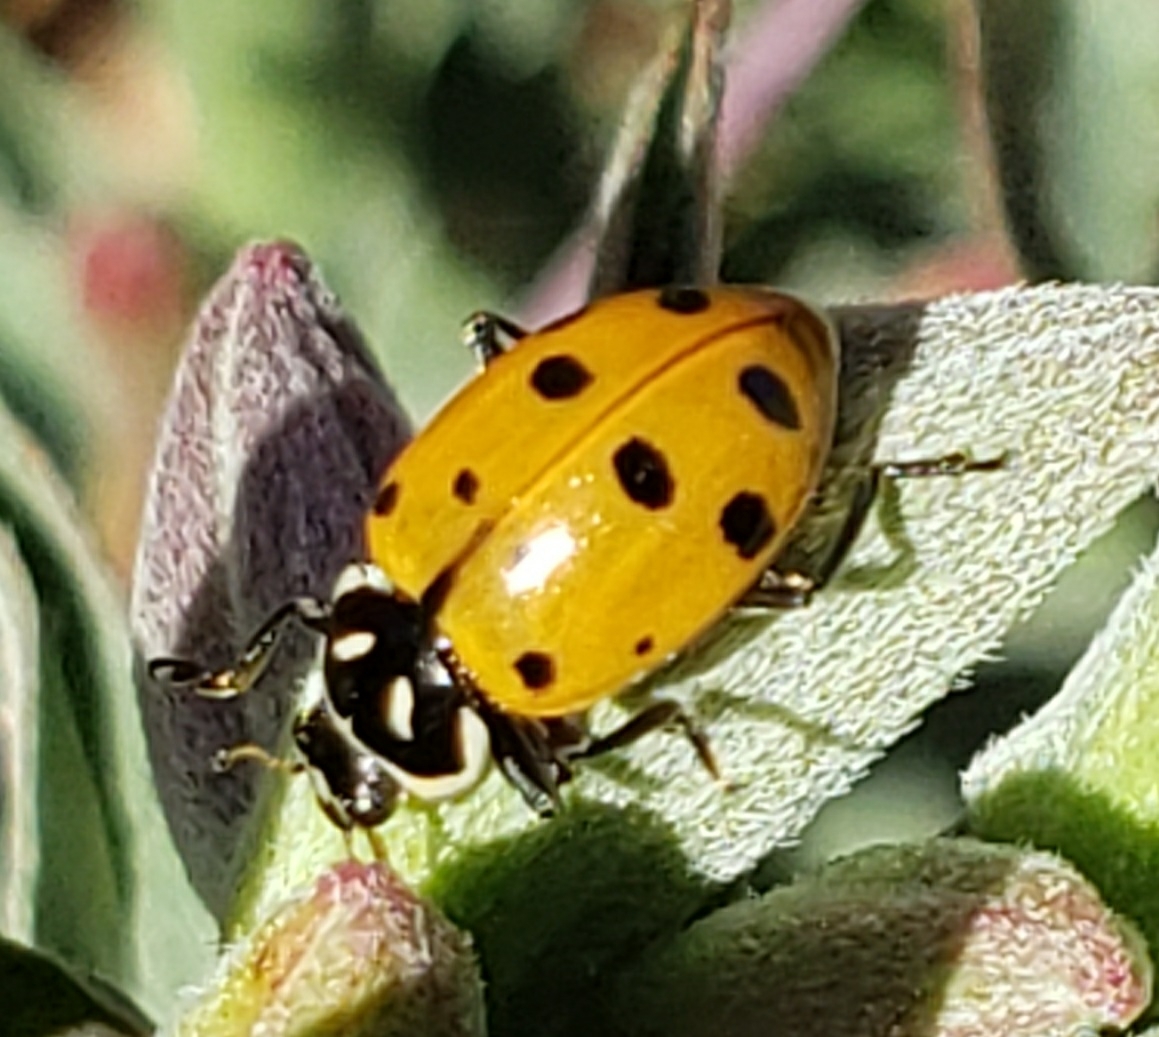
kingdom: Animalia
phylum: Arthropoda
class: Insecta
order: Coleoptera
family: Coccinellidae
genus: Hippodamia
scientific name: Hippodamia convergens
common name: Convergent lady beetle
